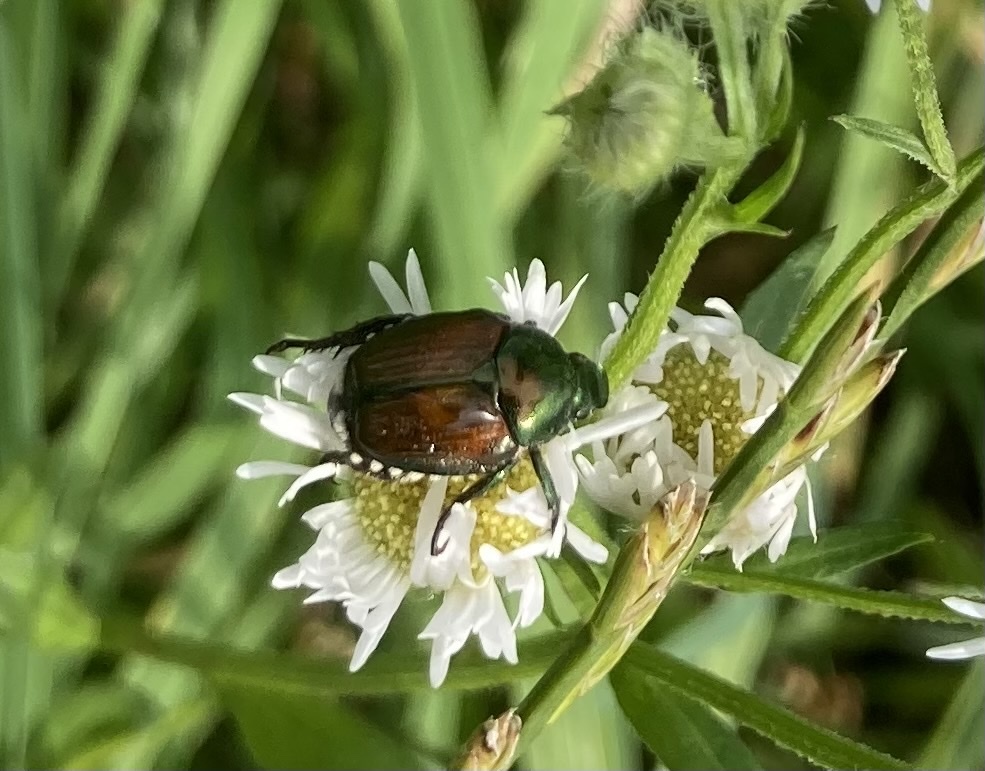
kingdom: Animalia
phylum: Arthropoda
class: Insecta
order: Coleoptera
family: Scarabaeidae
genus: Popillia
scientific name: Popillia japonica
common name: Japanese beetle
